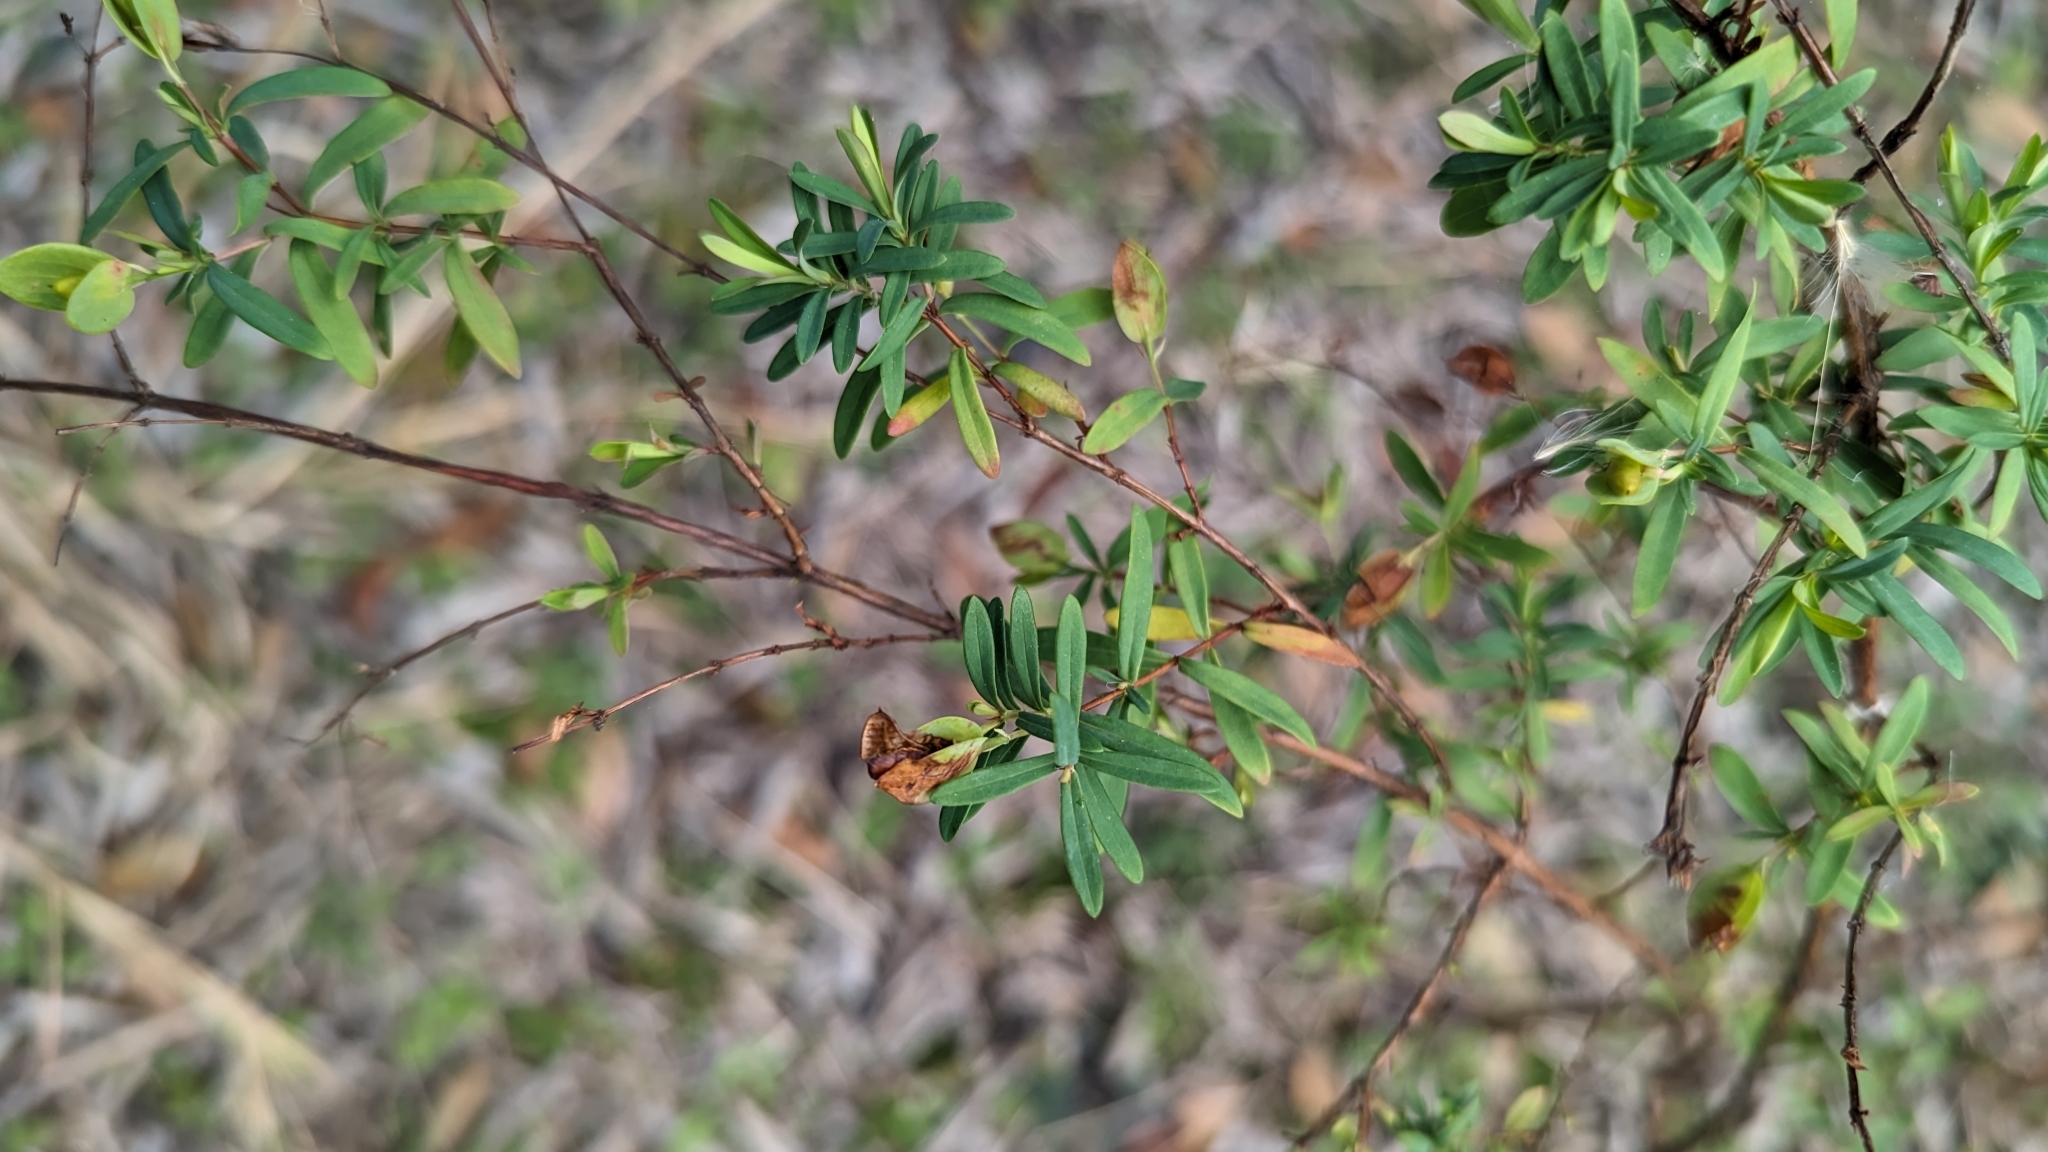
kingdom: Plantae
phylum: Tracheophyta
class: Magnoliopsida
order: Malpighiales
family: Hypericaceae
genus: Hypericum
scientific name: Hypericum hypericoides
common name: St. andrew's cross
